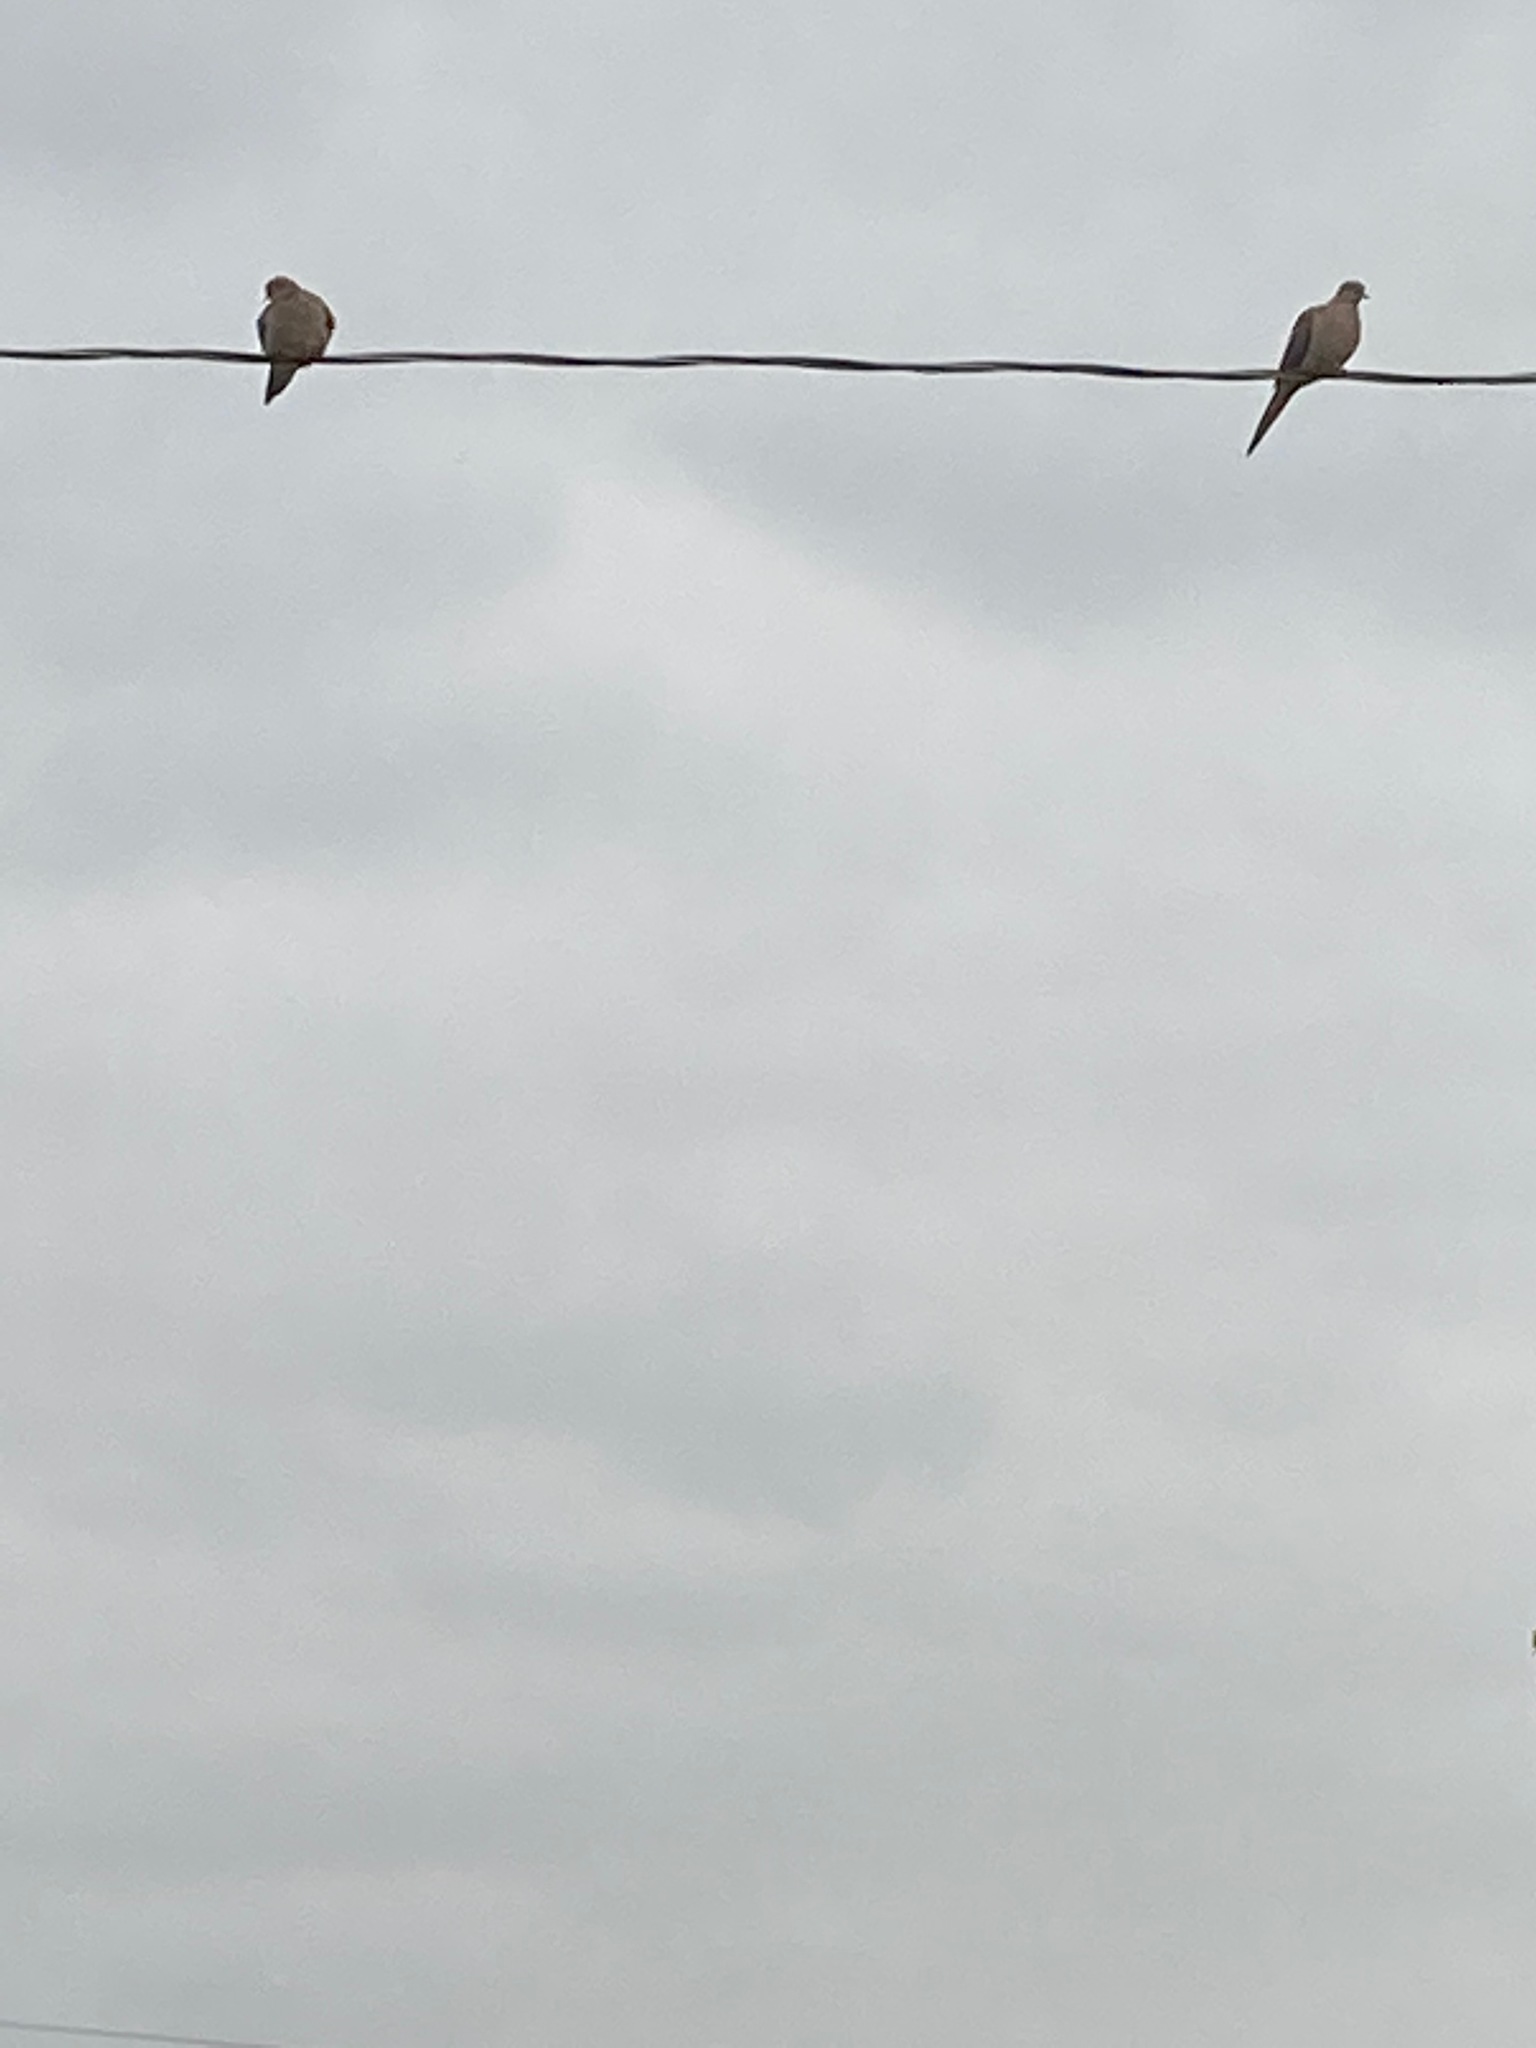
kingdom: Animalia
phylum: Chordata
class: Aves
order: Columbiformes
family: Columbidae
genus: Zenaida
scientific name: Zenaida macroura
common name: Mourning dove
